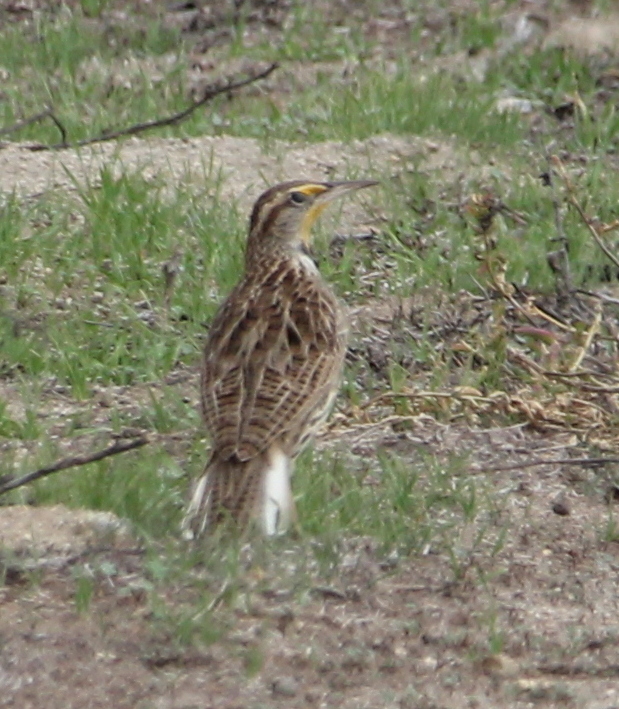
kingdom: Animalia
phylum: Chordata
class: Aves
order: Passeriformes
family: Icteridae
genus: Sturnella
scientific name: Sturnella neglecta
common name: Western meadowlark
